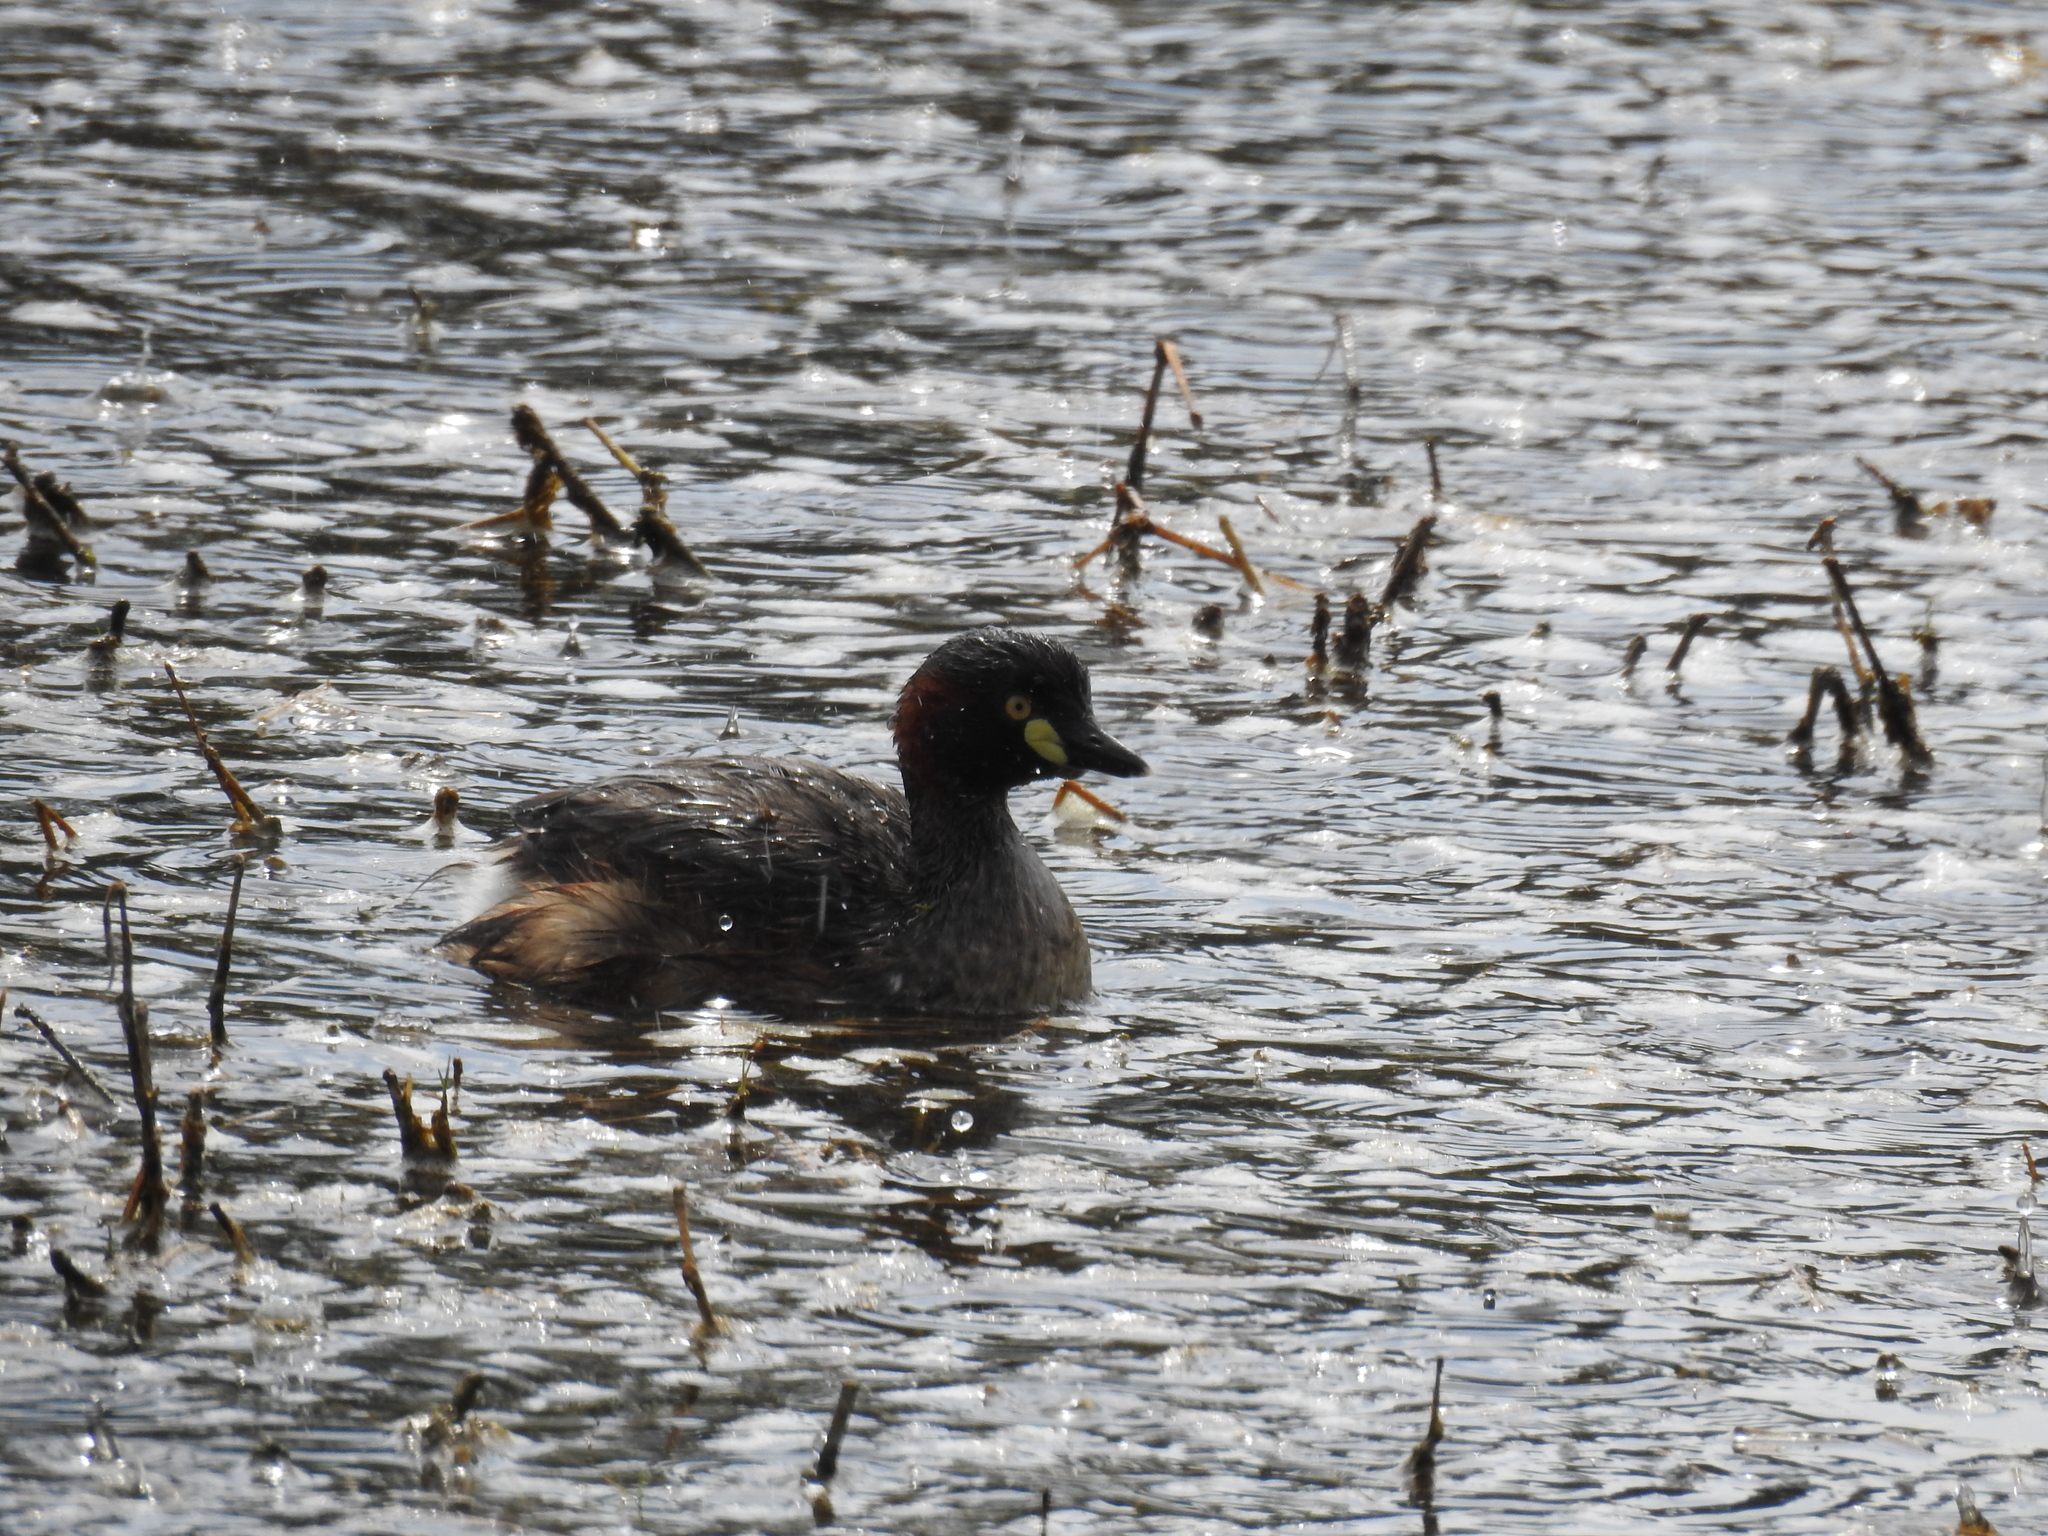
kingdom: Animalia
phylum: Chordata
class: Aves
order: Podicipediformes
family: Podicipedidae
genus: Tachybaptus
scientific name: Tachybaptus novaehollandiae
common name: Australasian grebe
